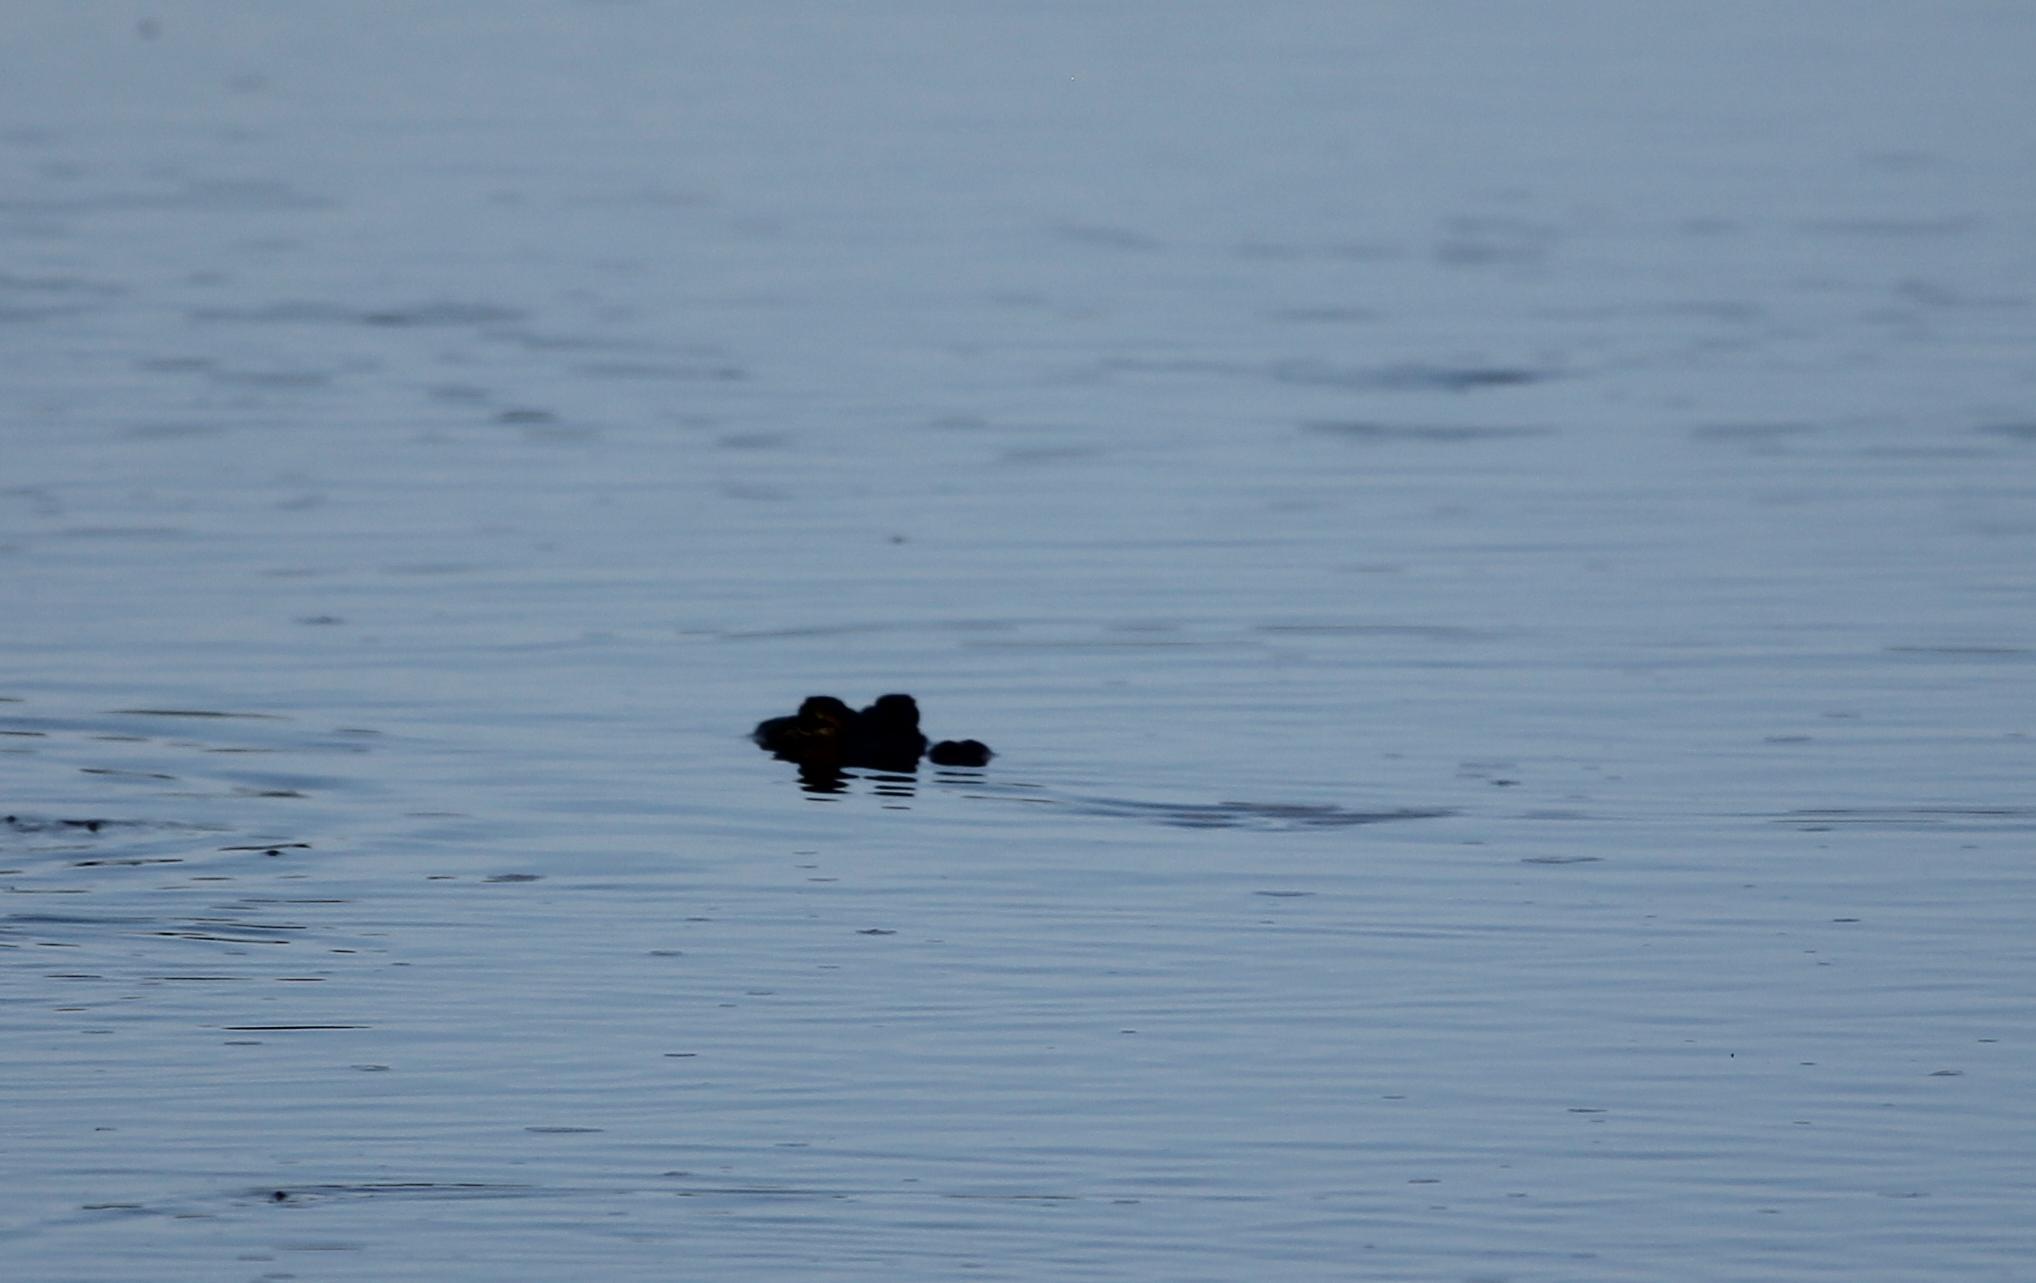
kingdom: Animalia
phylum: Chordata
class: Crocodylia
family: Alligatoridae
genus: Alligator
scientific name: Alligator mississippiensis
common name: American alligator
